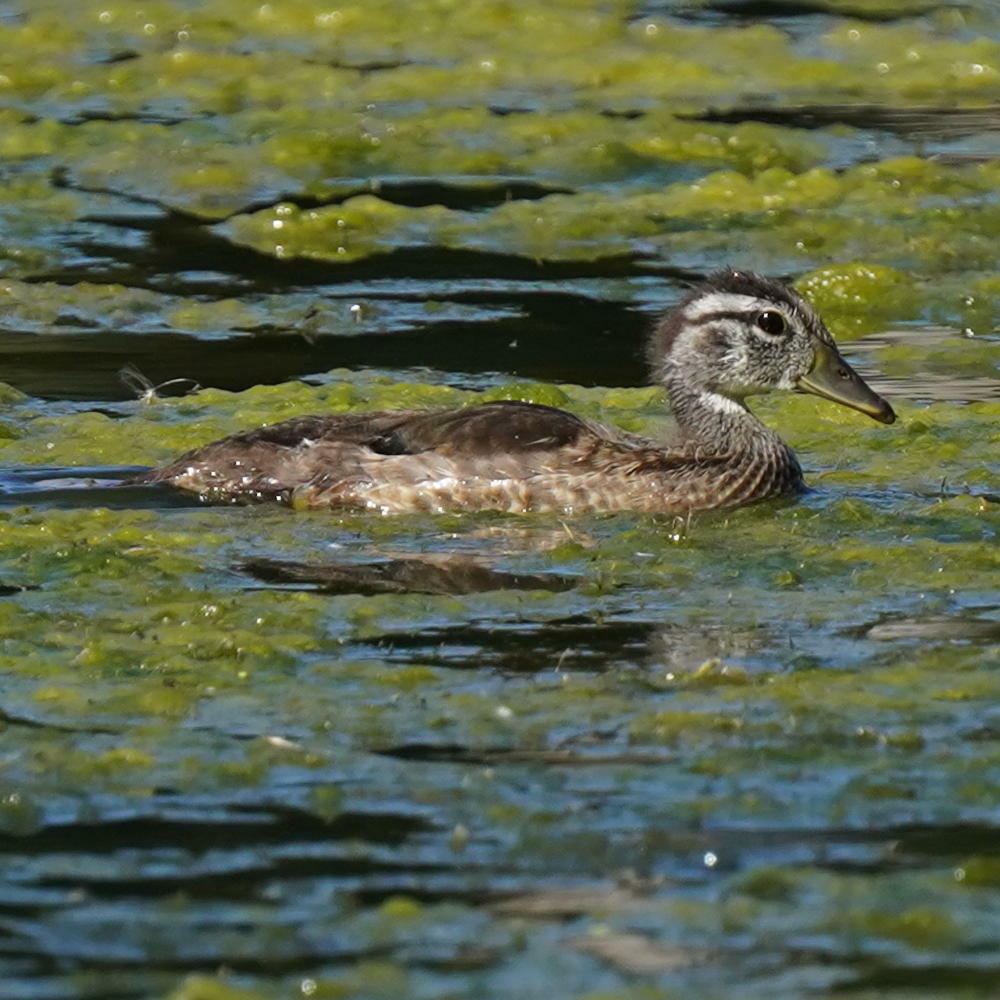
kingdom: Animalia
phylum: Chordata
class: Aves
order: Anseriformes
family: Anatidae
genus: Aix
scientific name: Aix sponsa
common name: Wood duck
